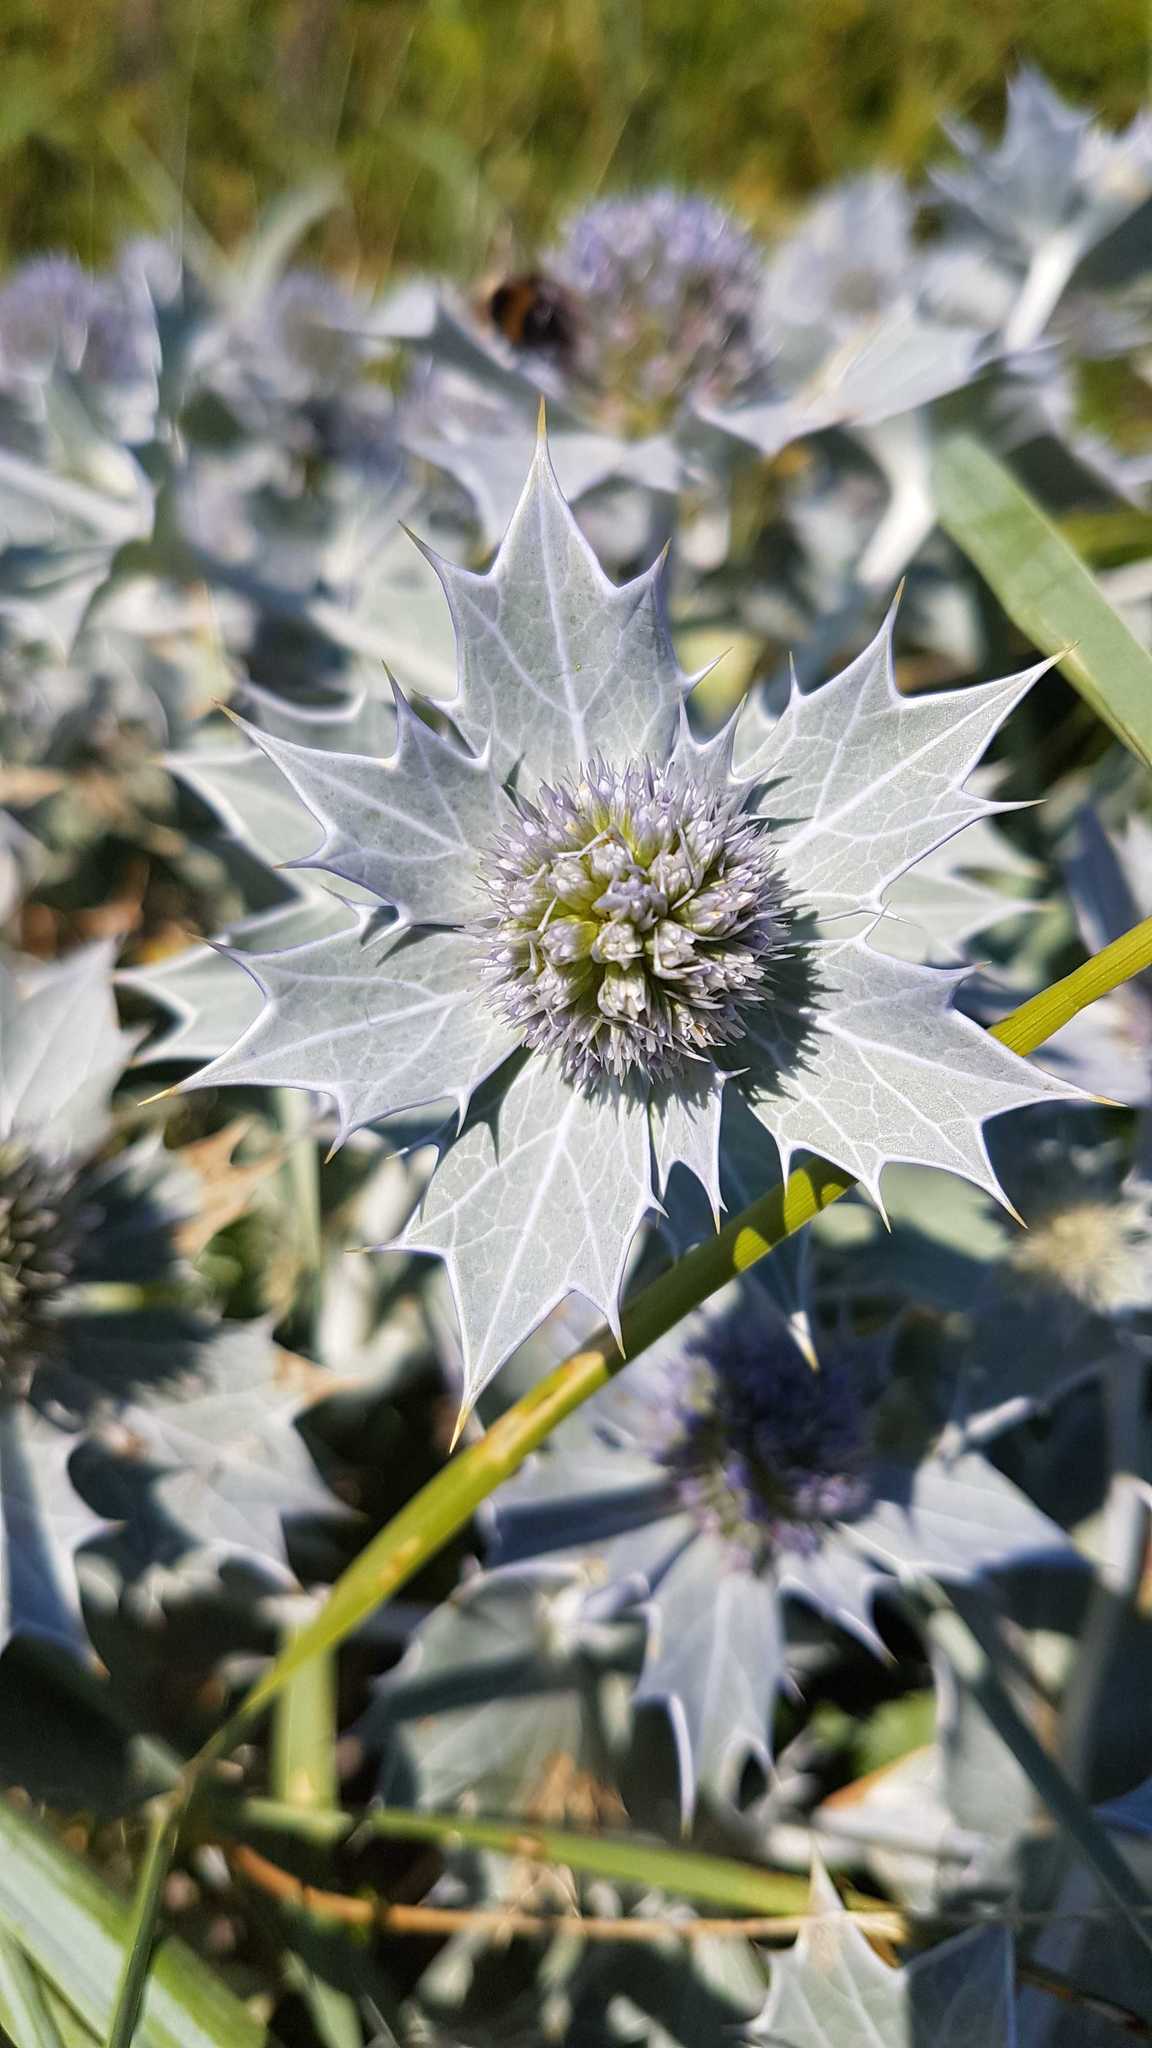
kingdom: Plantae
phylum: Tracheophyta
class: Magnoliopsida
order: Apiales
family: Apiaceae
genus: Eryngium
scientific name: Eryngium maritimum
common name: Sea-holly
